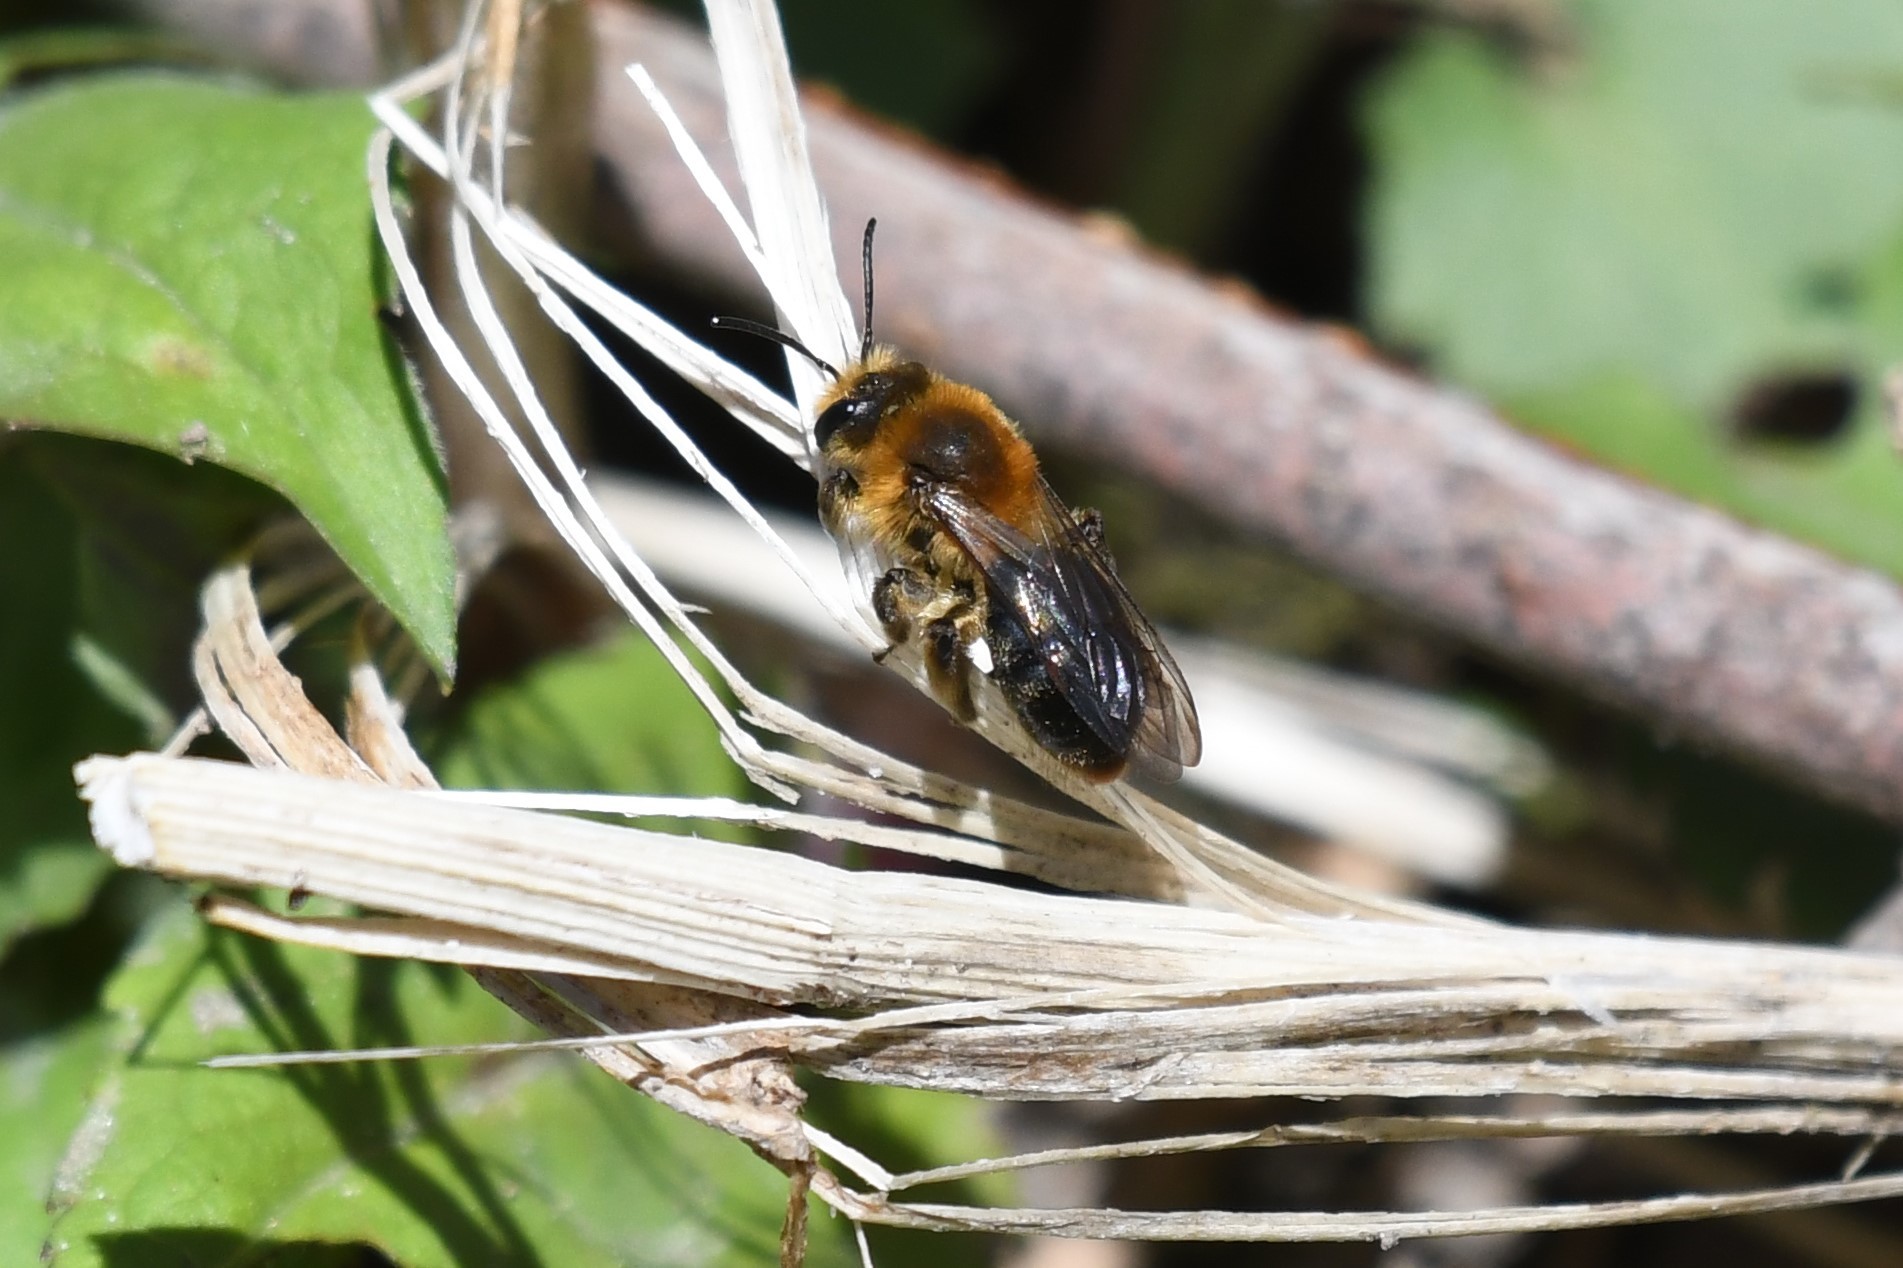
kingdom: Animalia
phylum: Arthropoda
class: Insecta
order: Hymenoptera
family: Andrenidae
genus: Andrena
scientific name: Andrena dunningi
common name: Dunning's miner
